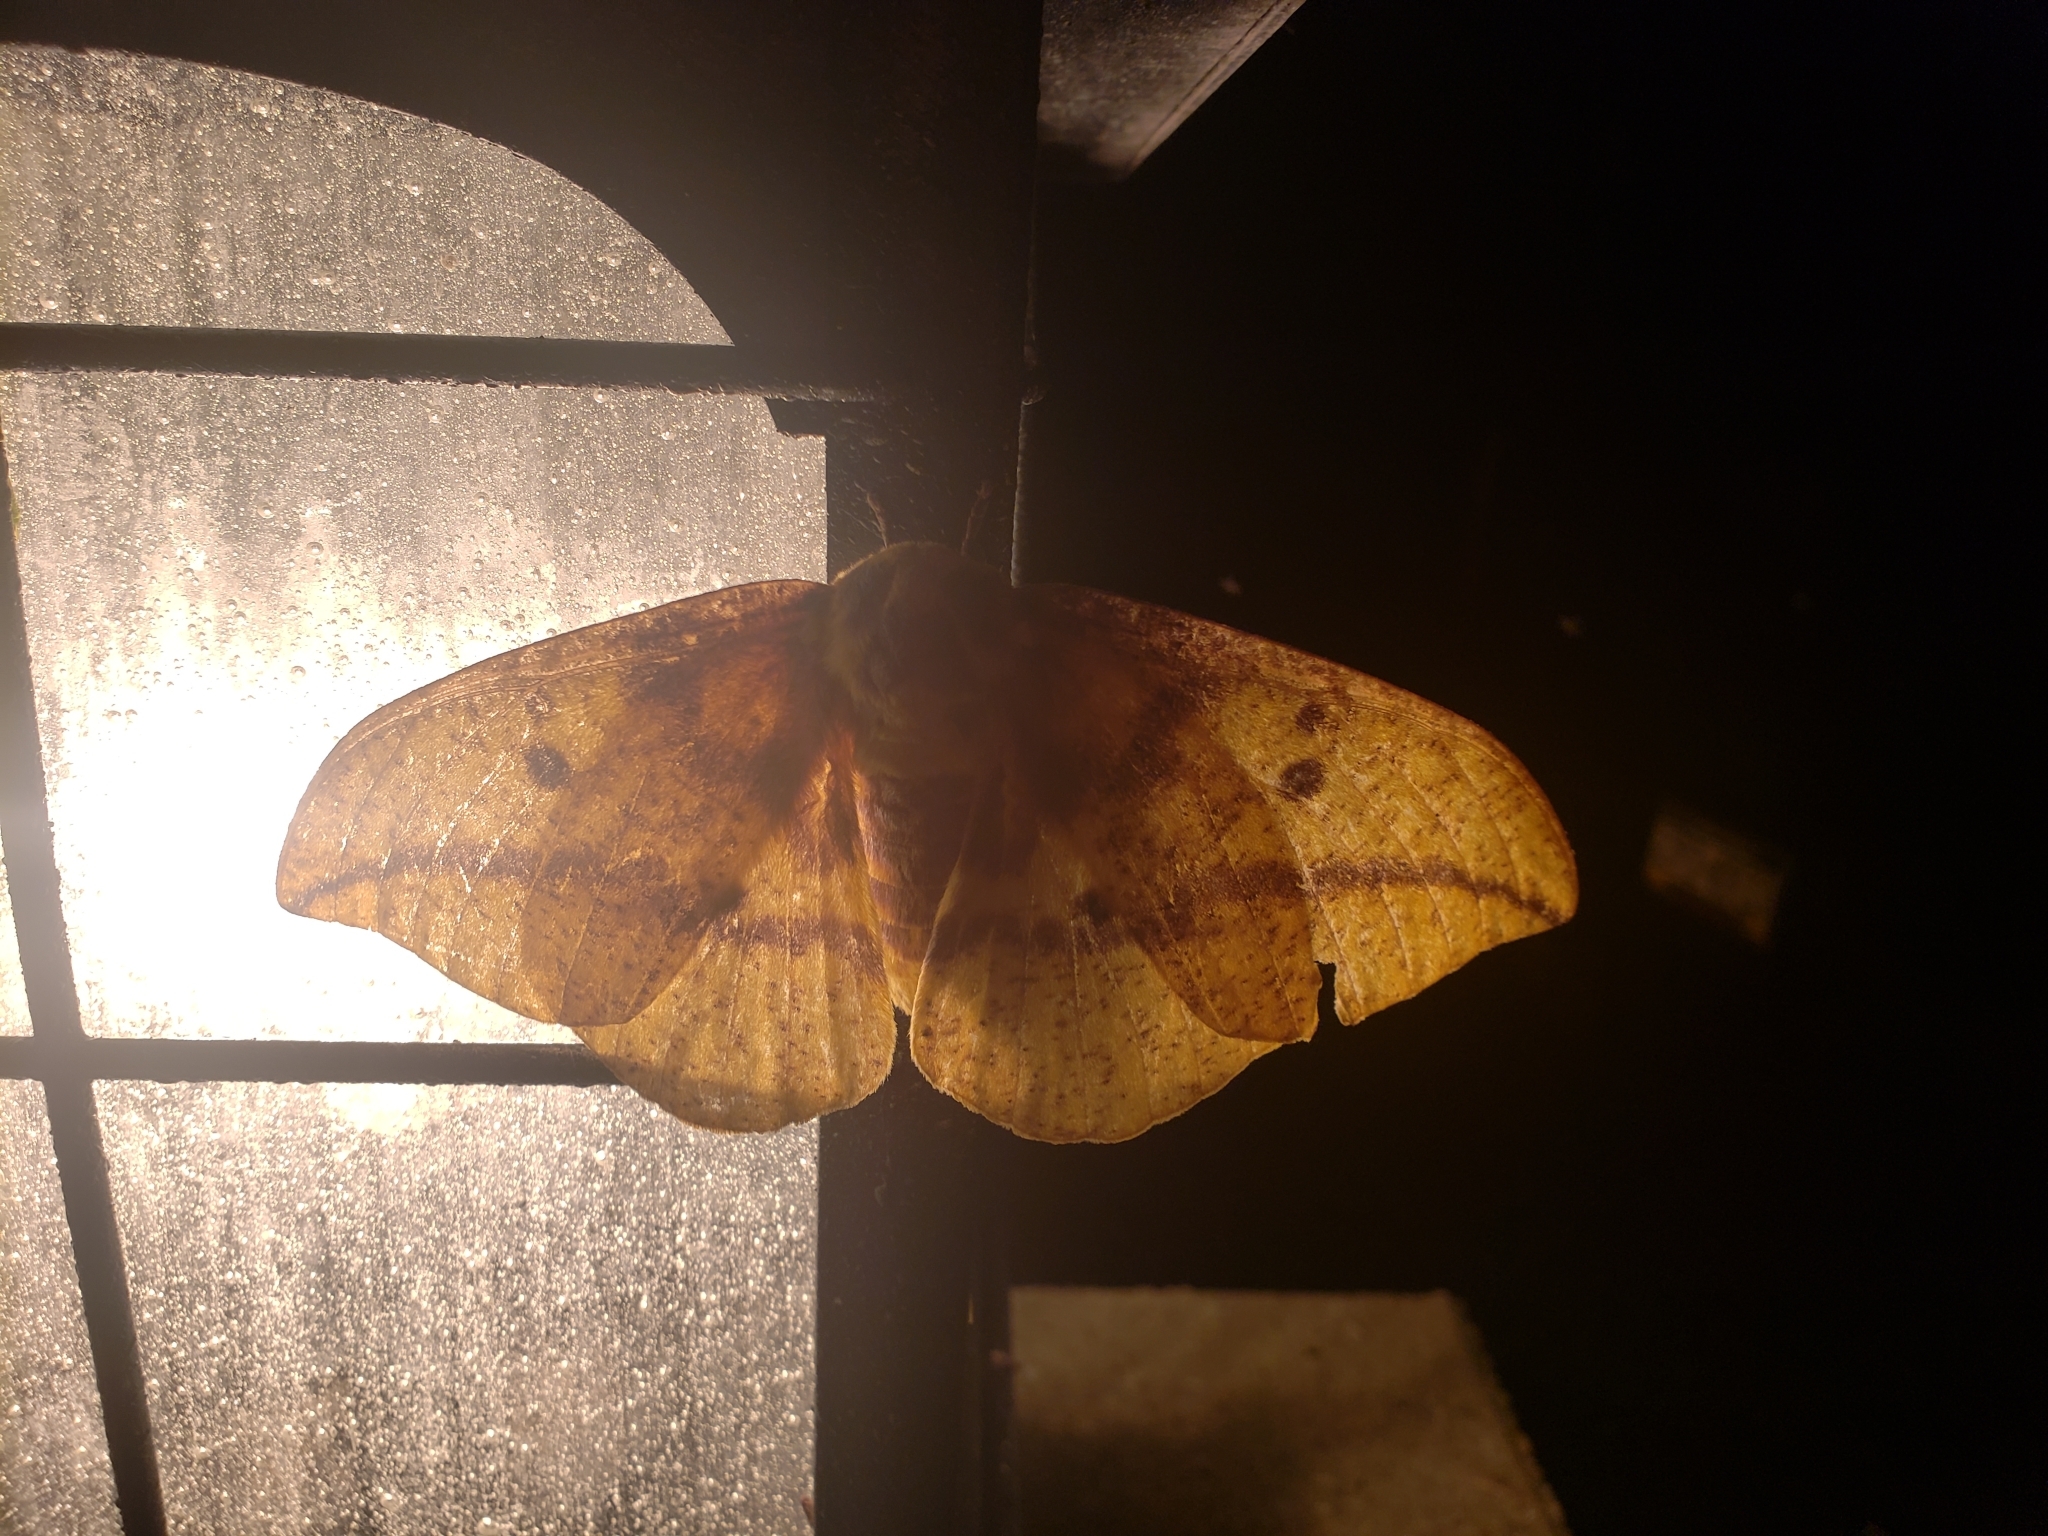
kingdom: Animalia
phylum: Arthropoda
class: Insecta
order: Lepidoptera
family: Saturniidae
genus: Eacles
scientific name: Eacles imperialis
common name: Imperial moth
